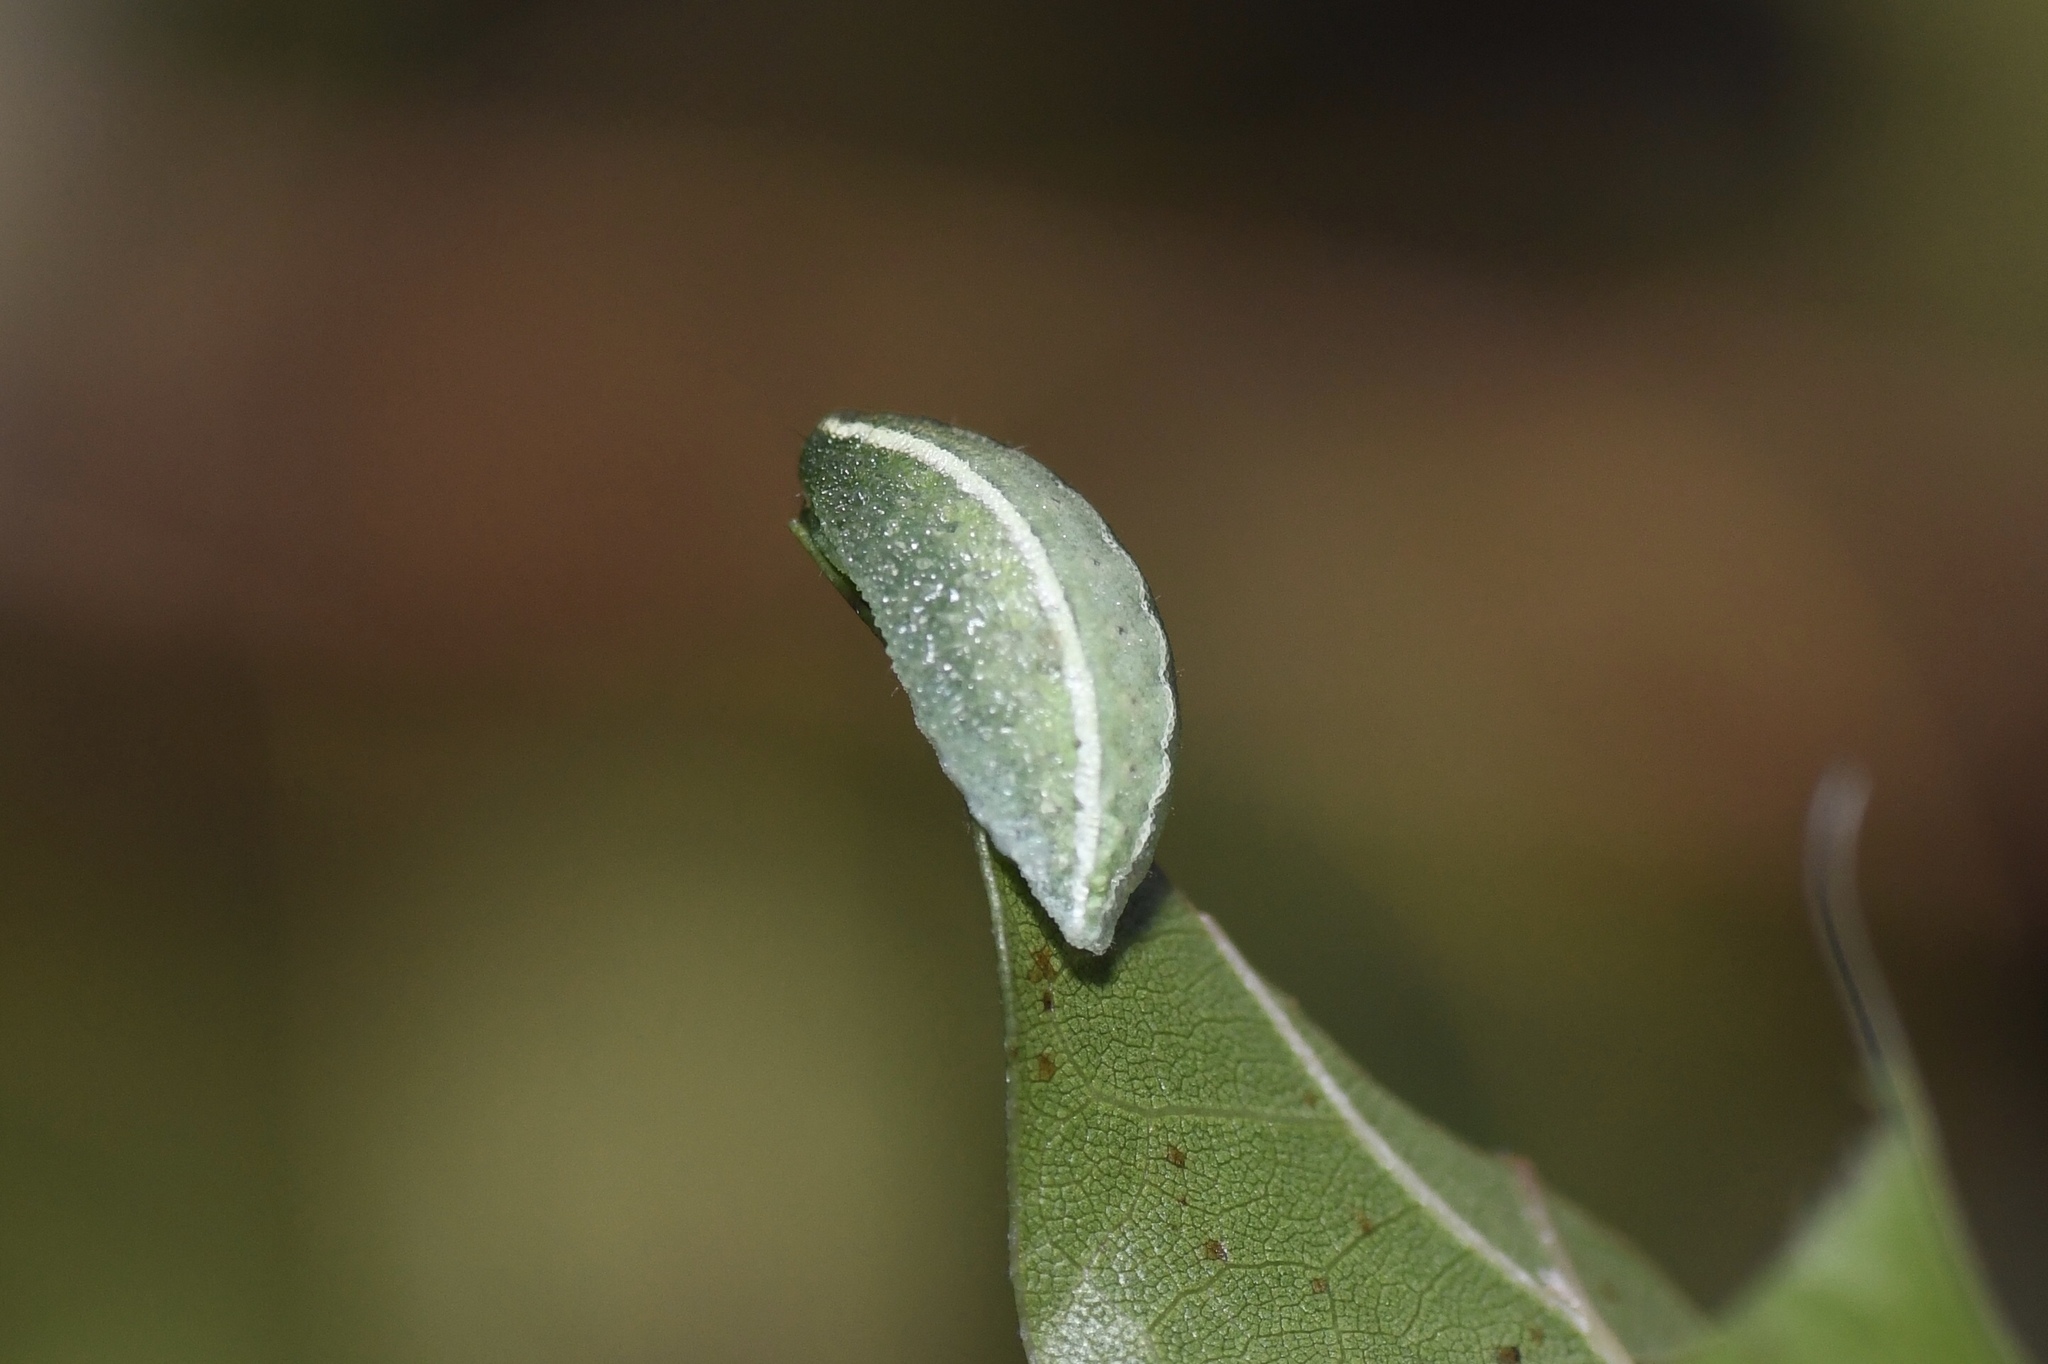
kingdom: Animalia
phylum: Arthropoda
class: Insecta
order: Lepidoptera
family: Limacodidae
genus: Apoda
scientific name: Apoda biguttata
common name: Shagreened slug moth
